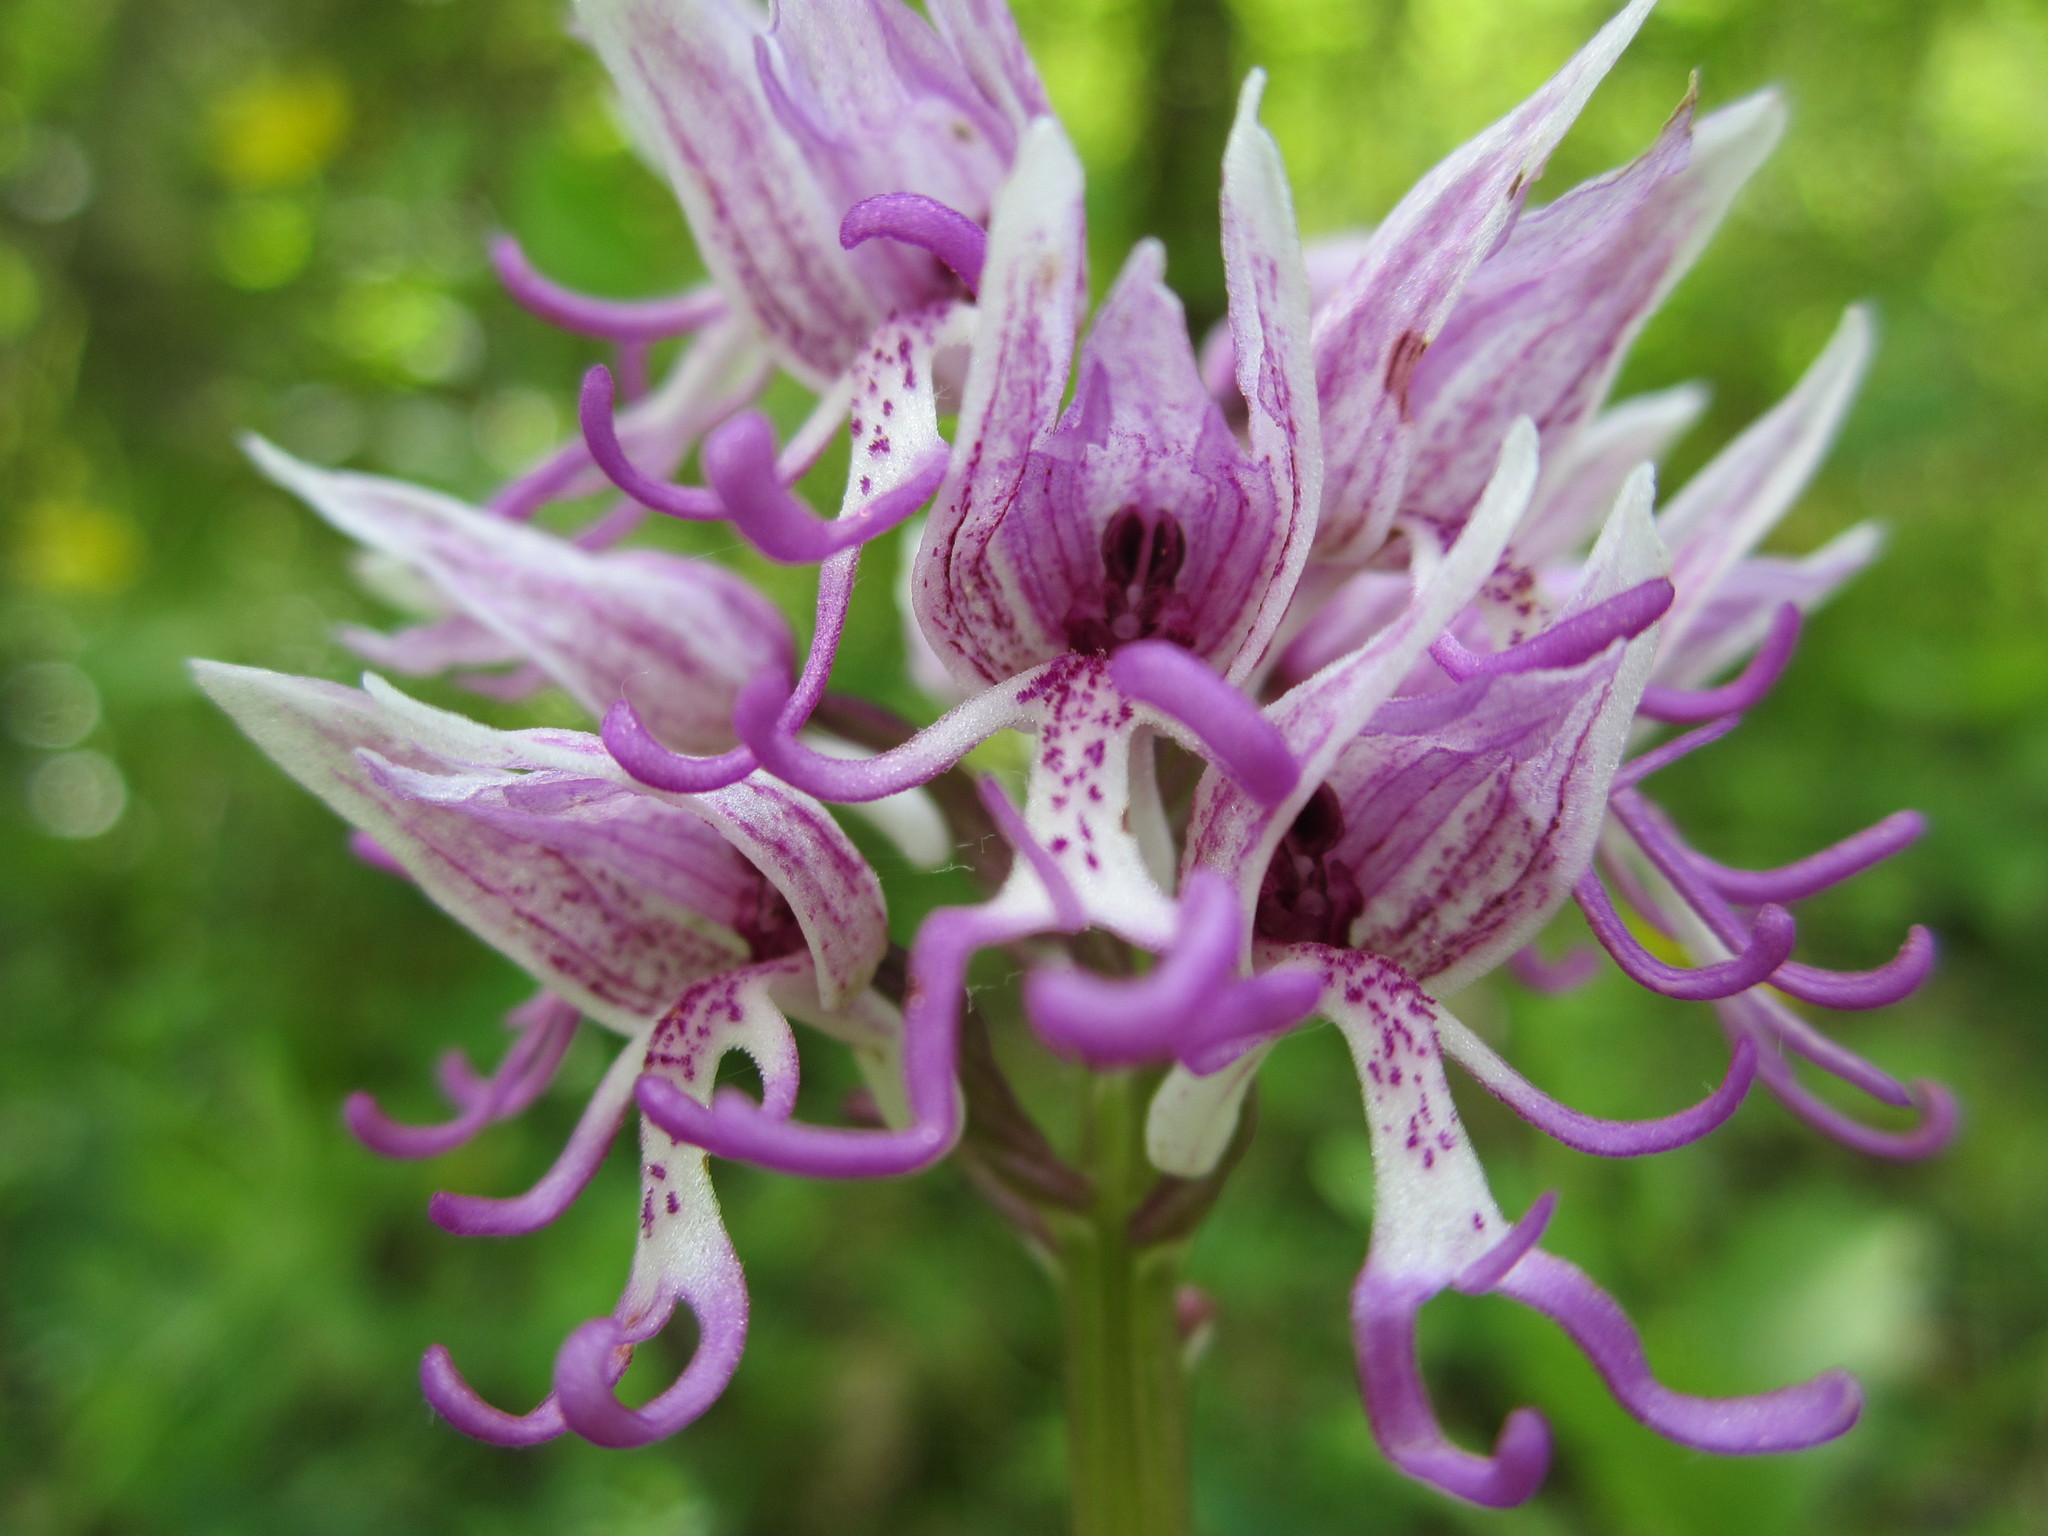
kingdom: Plantae
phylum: Tracheophyta
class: Liliopsida
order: Asparagales
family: Orchidaceae
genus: Orchis
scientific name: Orchis simia
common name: Monkey orchid
